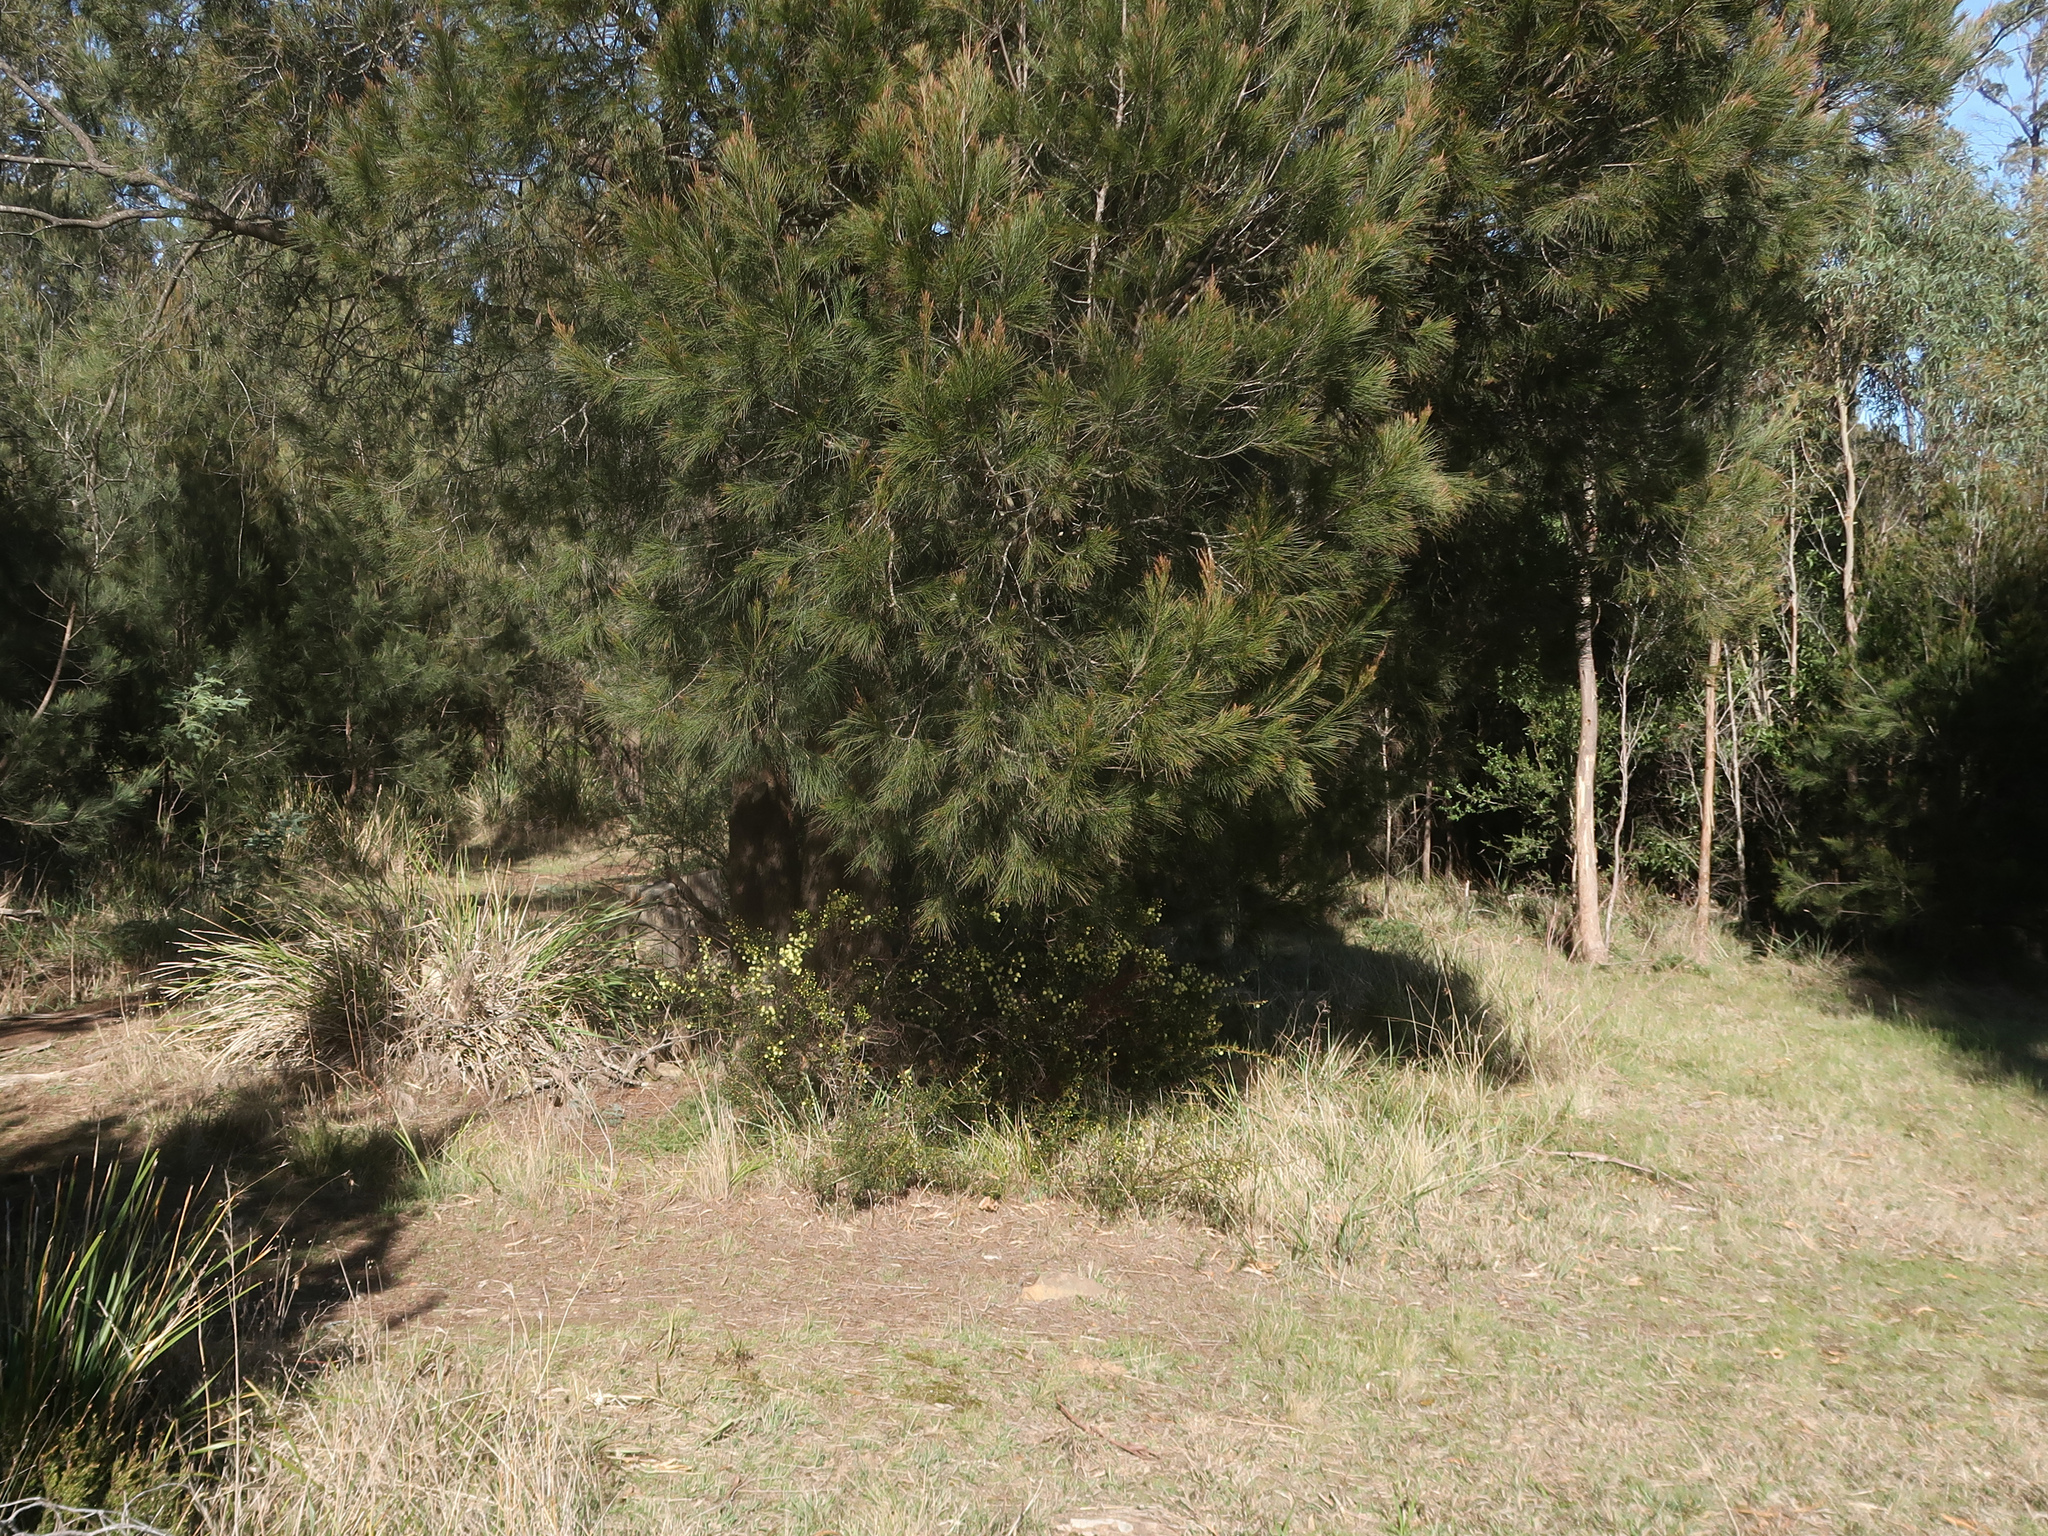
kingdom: Plantae
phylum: Tracheophyta
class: Magnoliopsida
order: Fabales
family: Fabaceae
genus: Acacia
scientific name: Acacia genistifolia
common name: Early wattle
